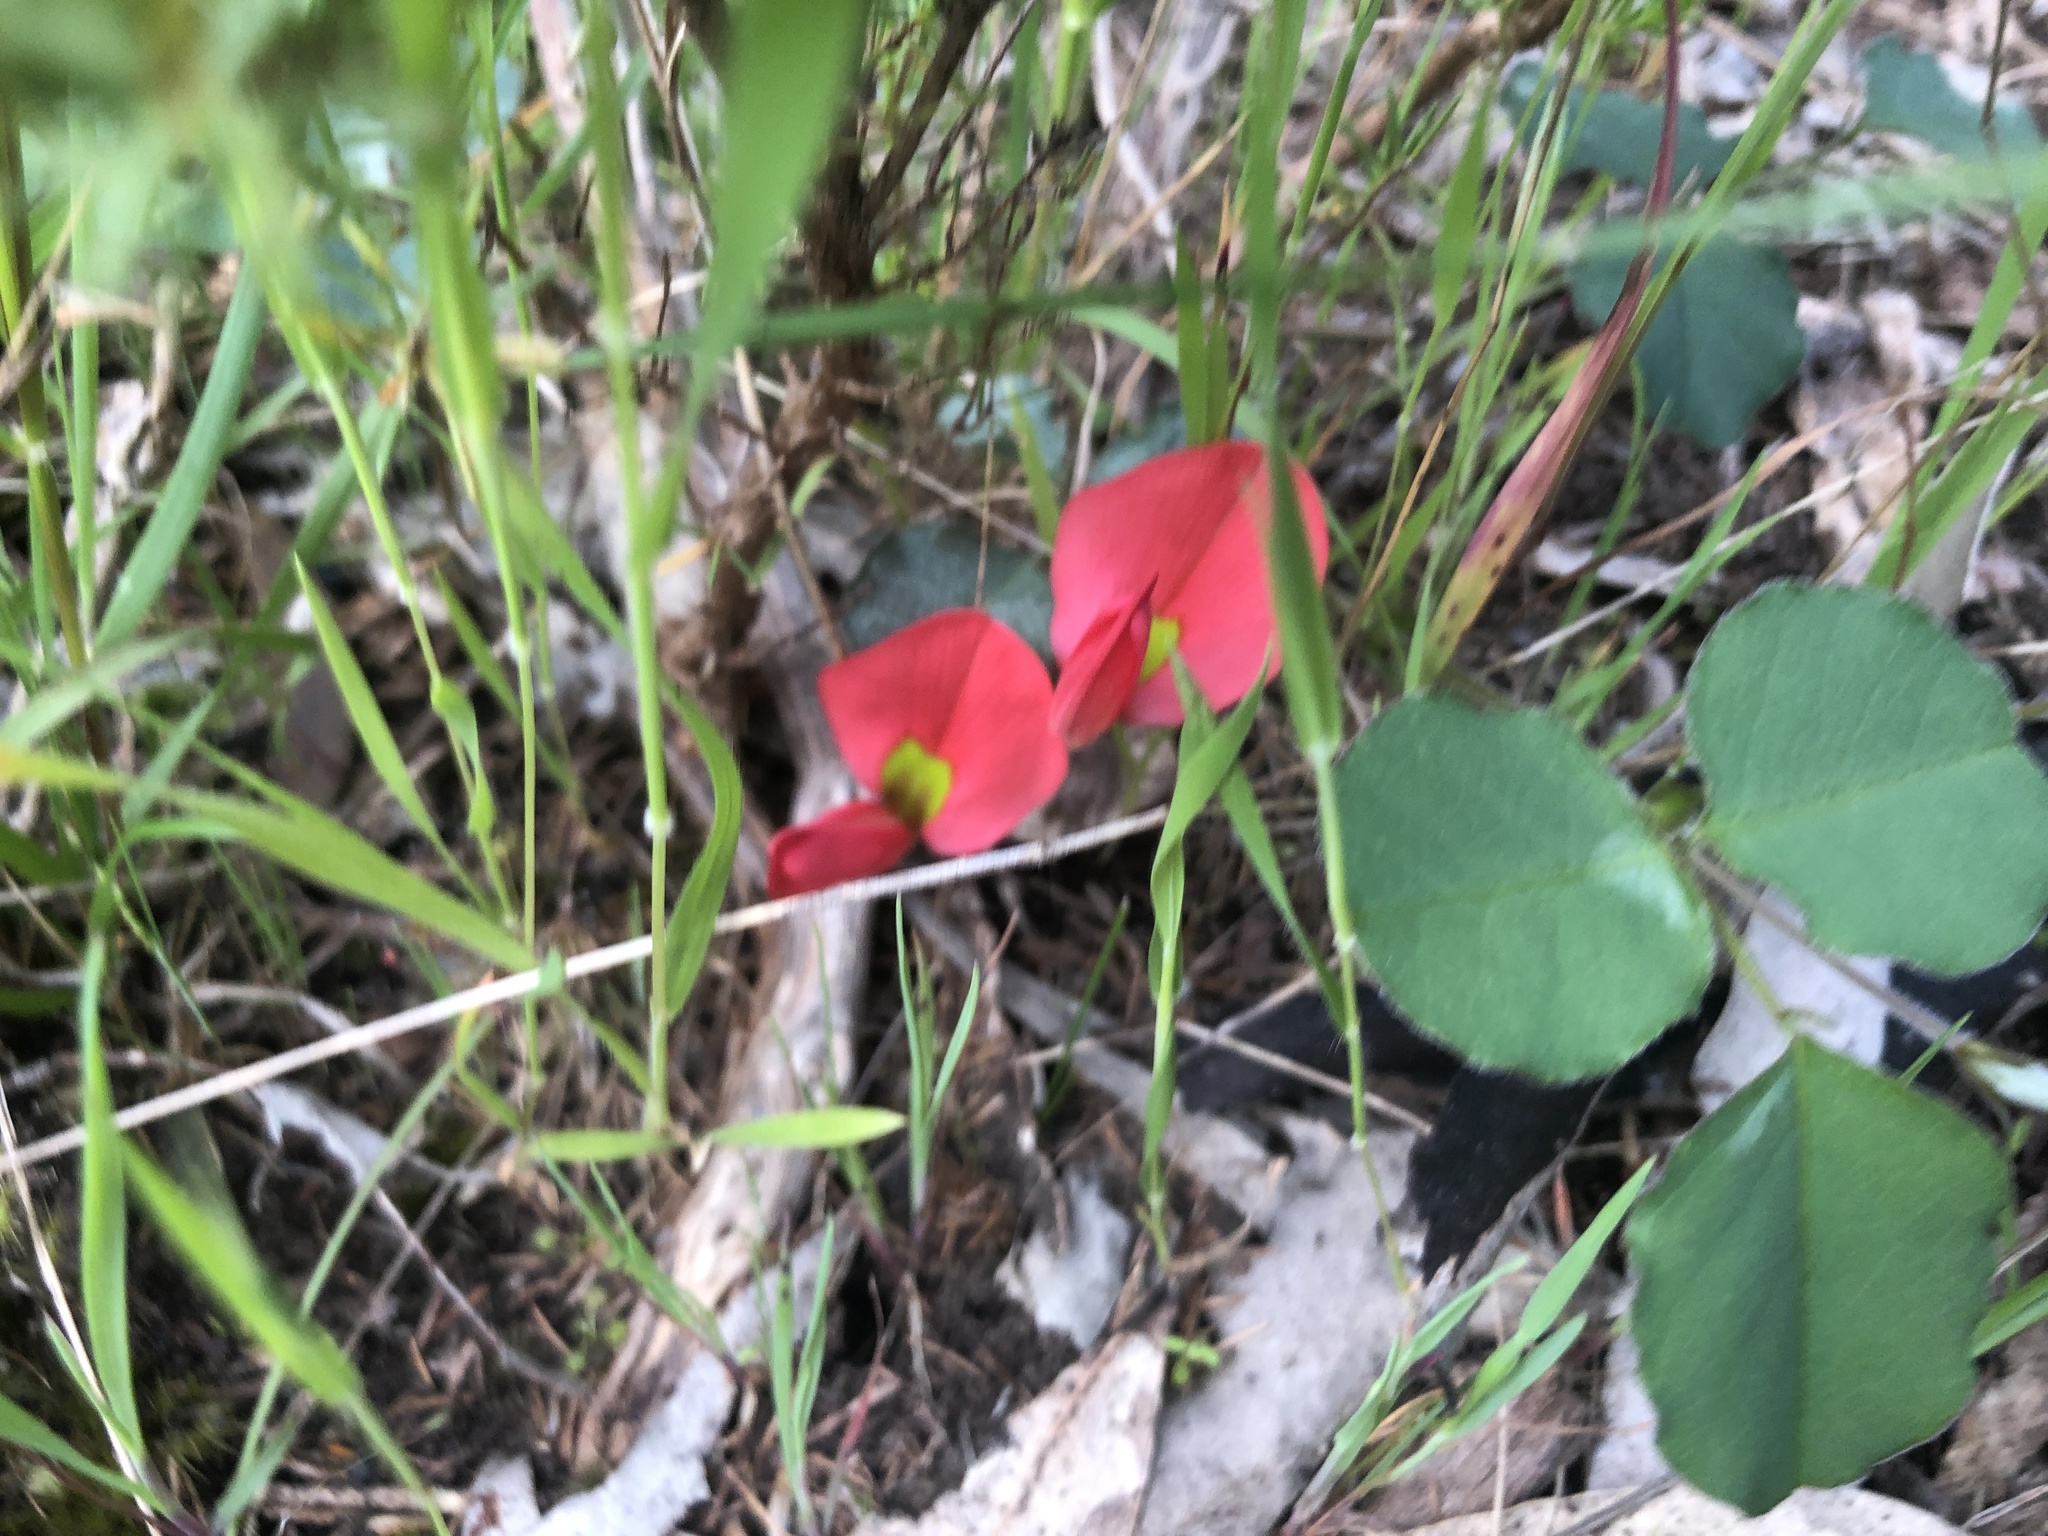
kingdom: Plantae
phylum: Tracheophyta
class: Magnoliopsida
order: Fabales
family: Fabaceae
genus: Kennedia
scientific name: Kennedia prostrata
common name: Running-postman
